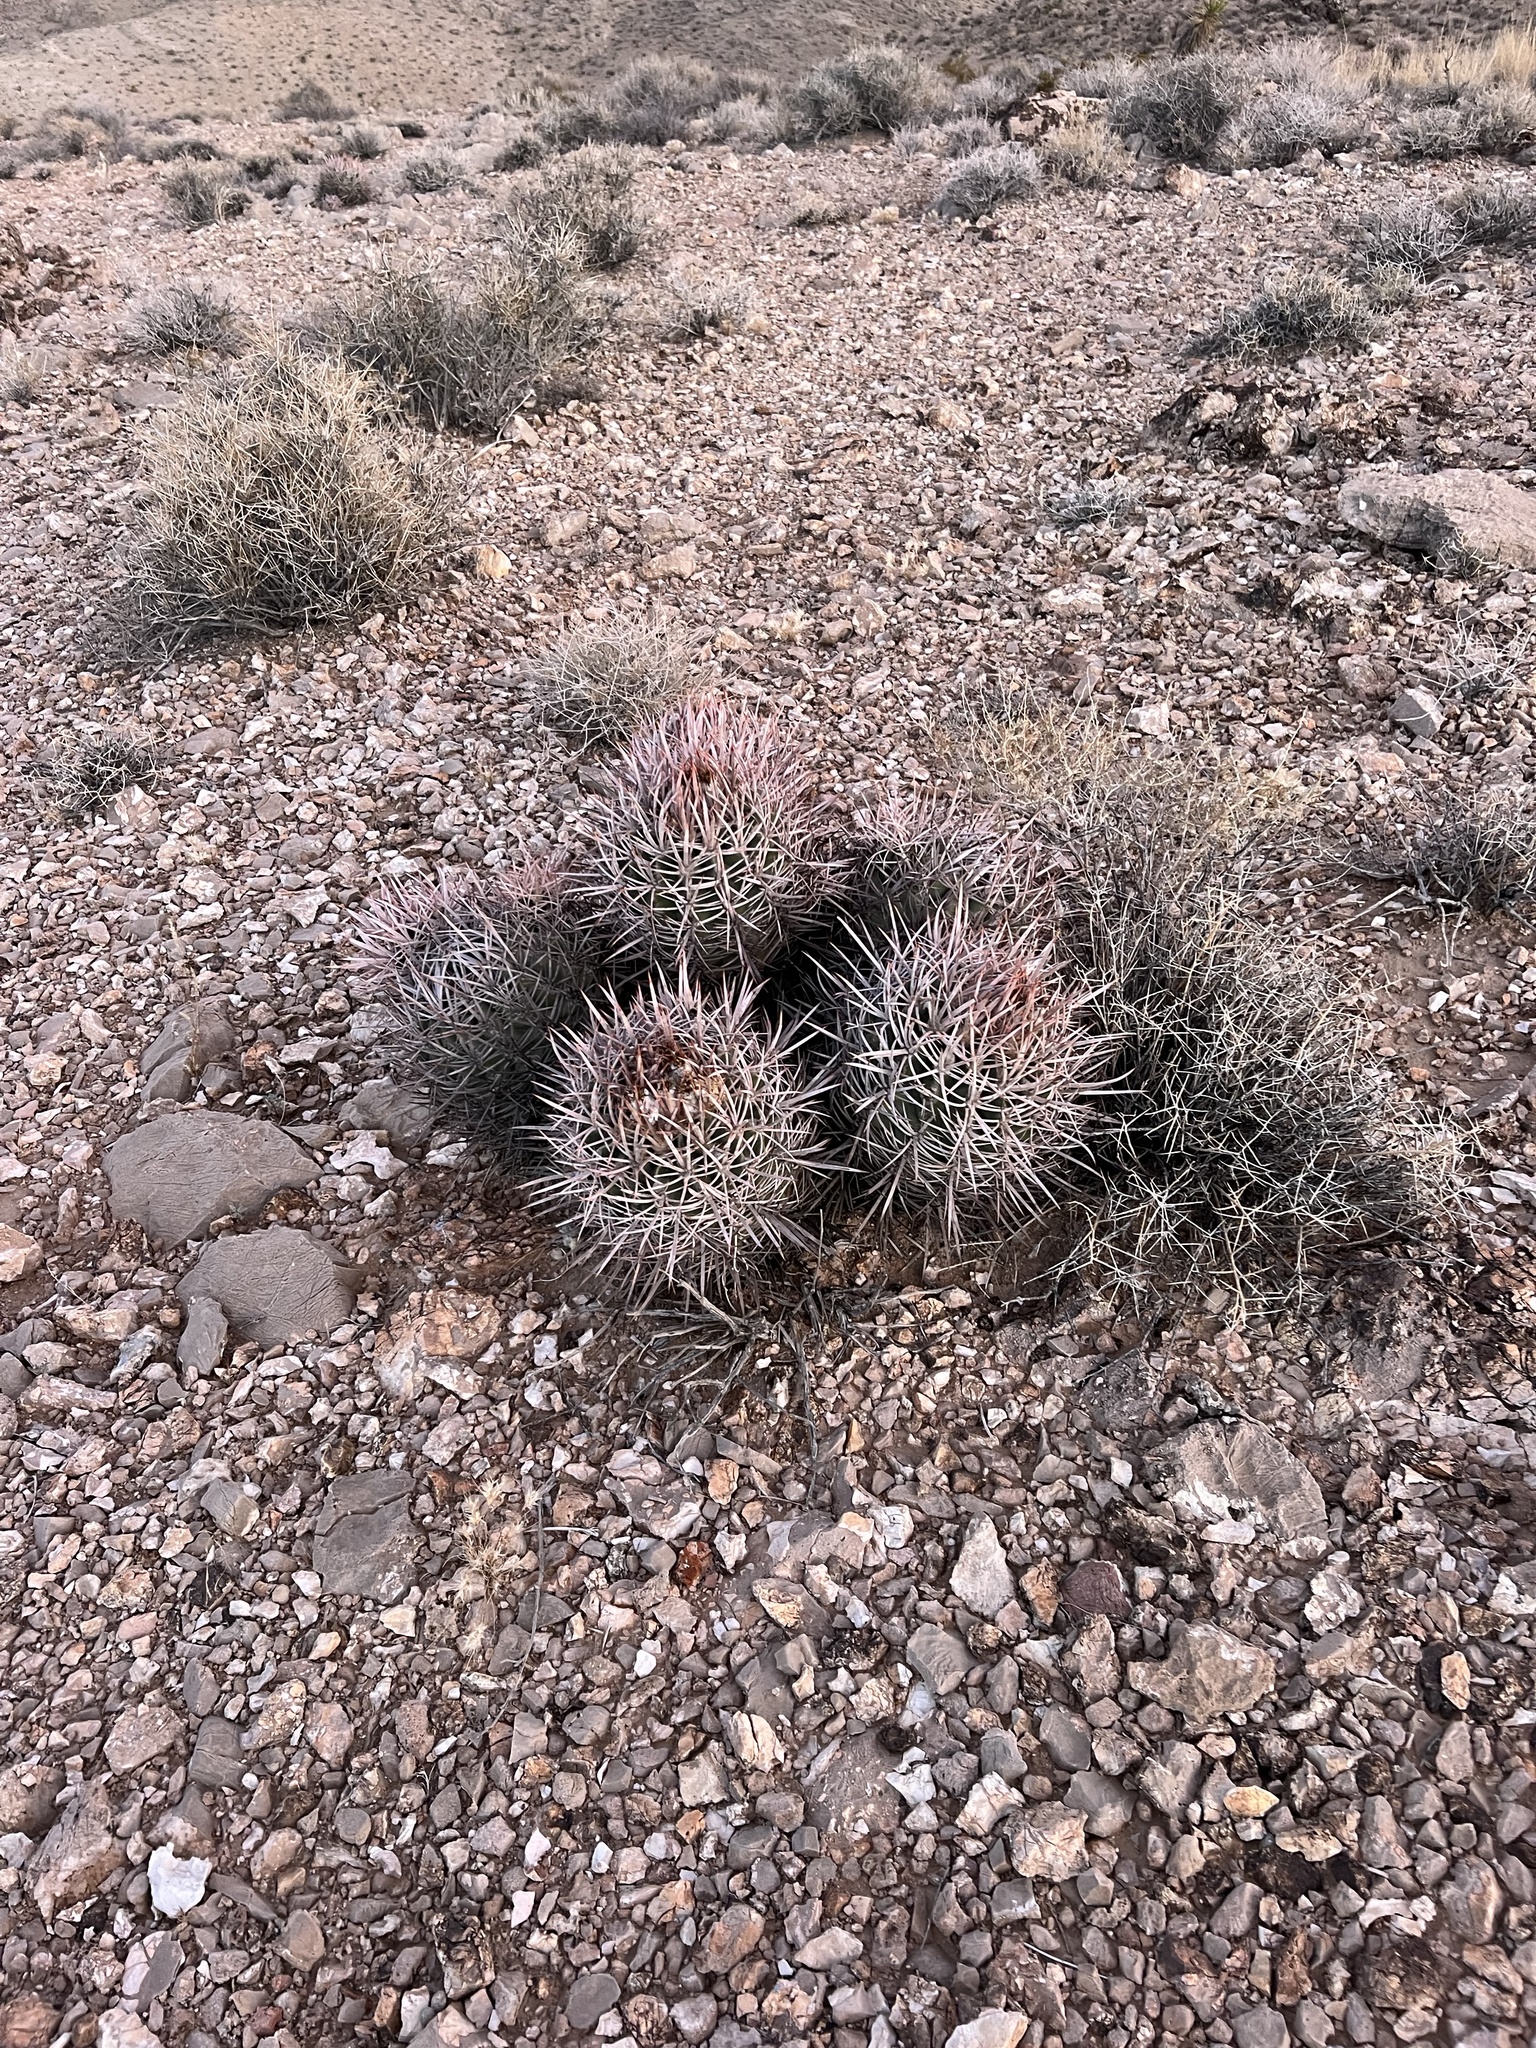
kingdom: Plantae
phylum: Tracheophyta
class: Magnoliopsida
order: Caryophyllales
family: Cactaceae
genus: Echinocactus
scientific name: Echinocactus polycephalus
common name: Cottontop cactus
